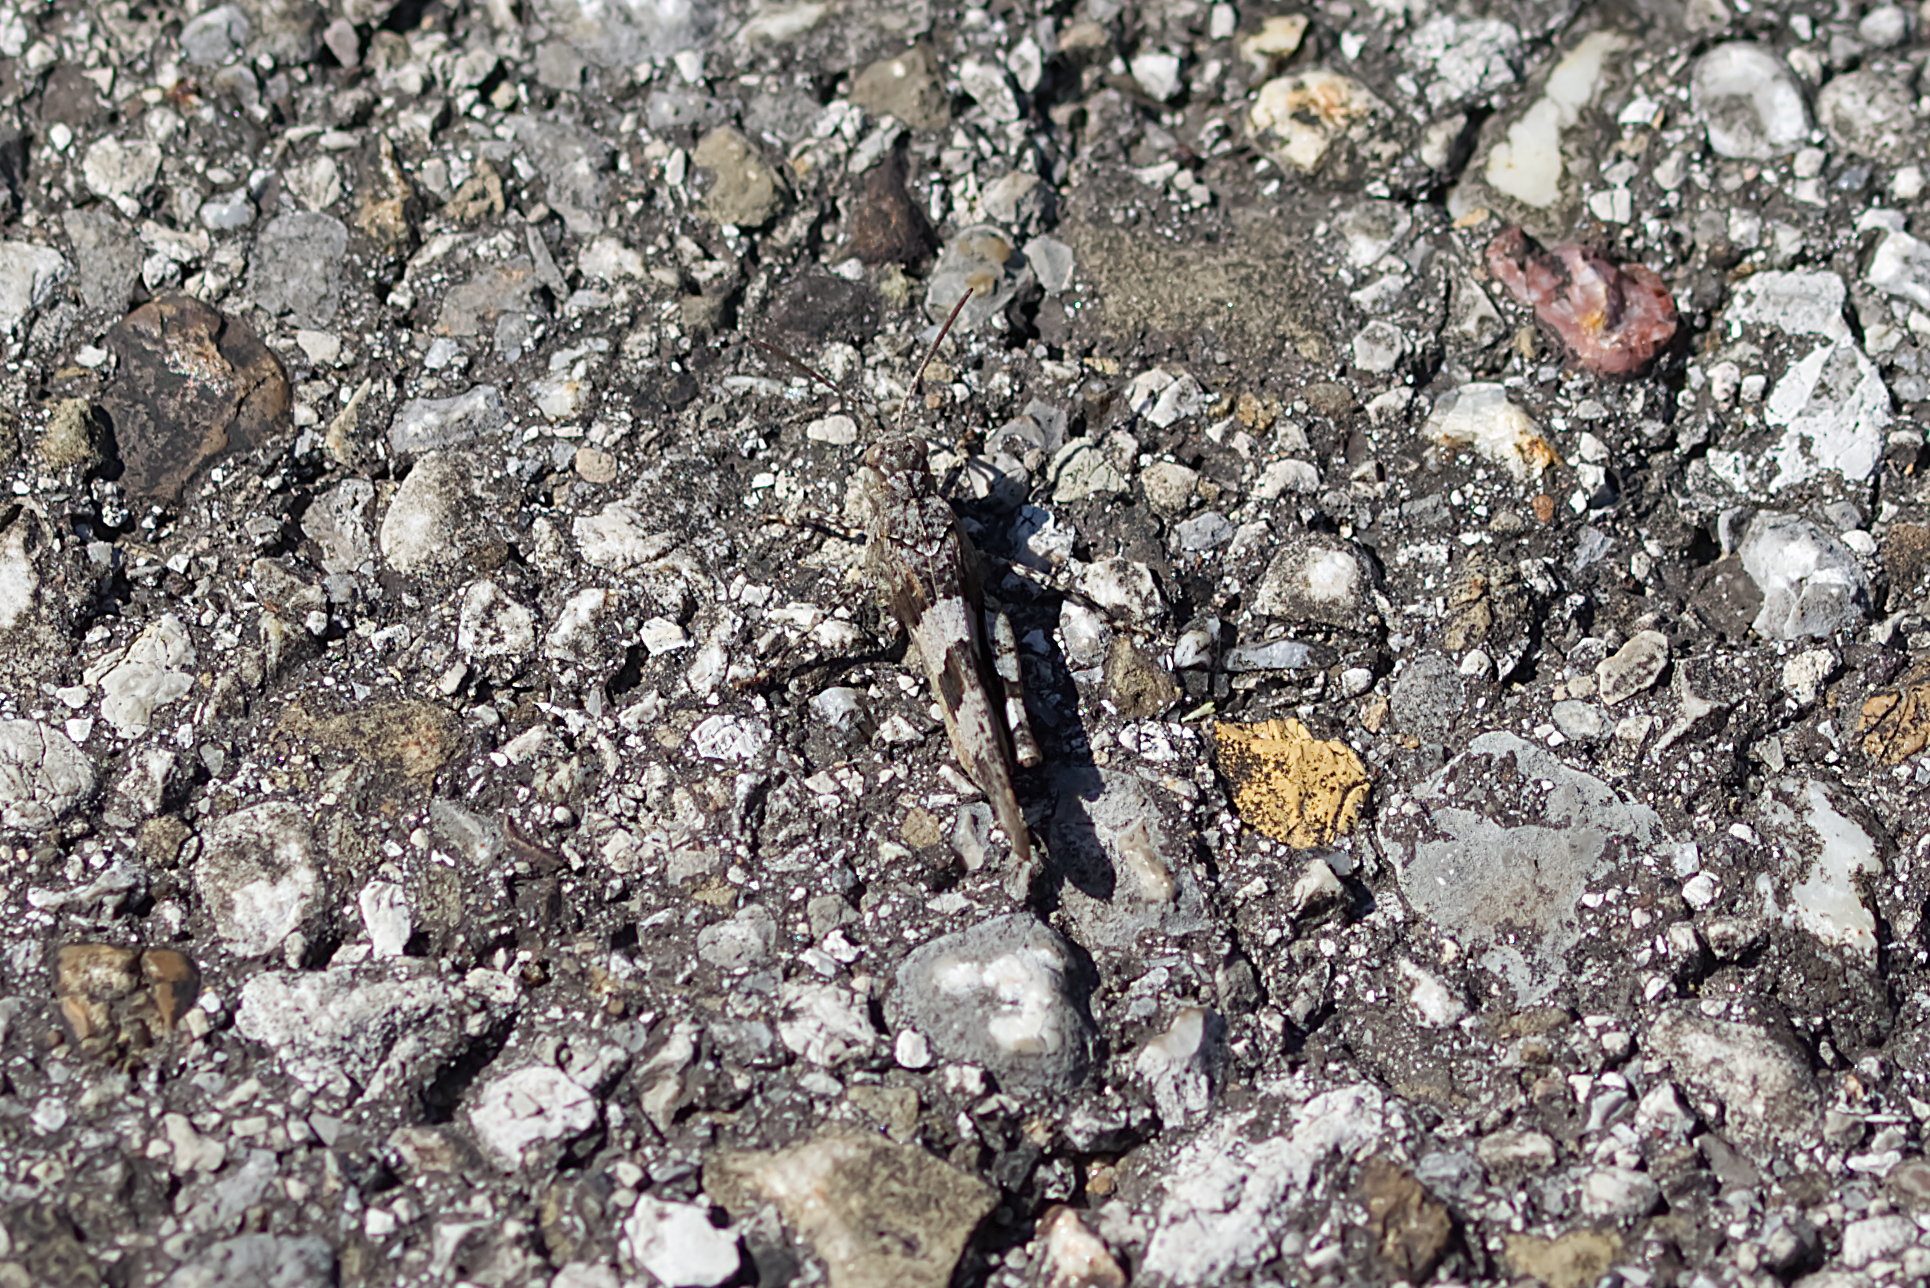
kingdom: Animalia
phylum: Arthropoda
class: Insecta
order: Orthoptera
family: Acrididae
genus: Oedipoda
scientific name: Oedipoda caerulescens
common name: Blue-winged grasshopper
